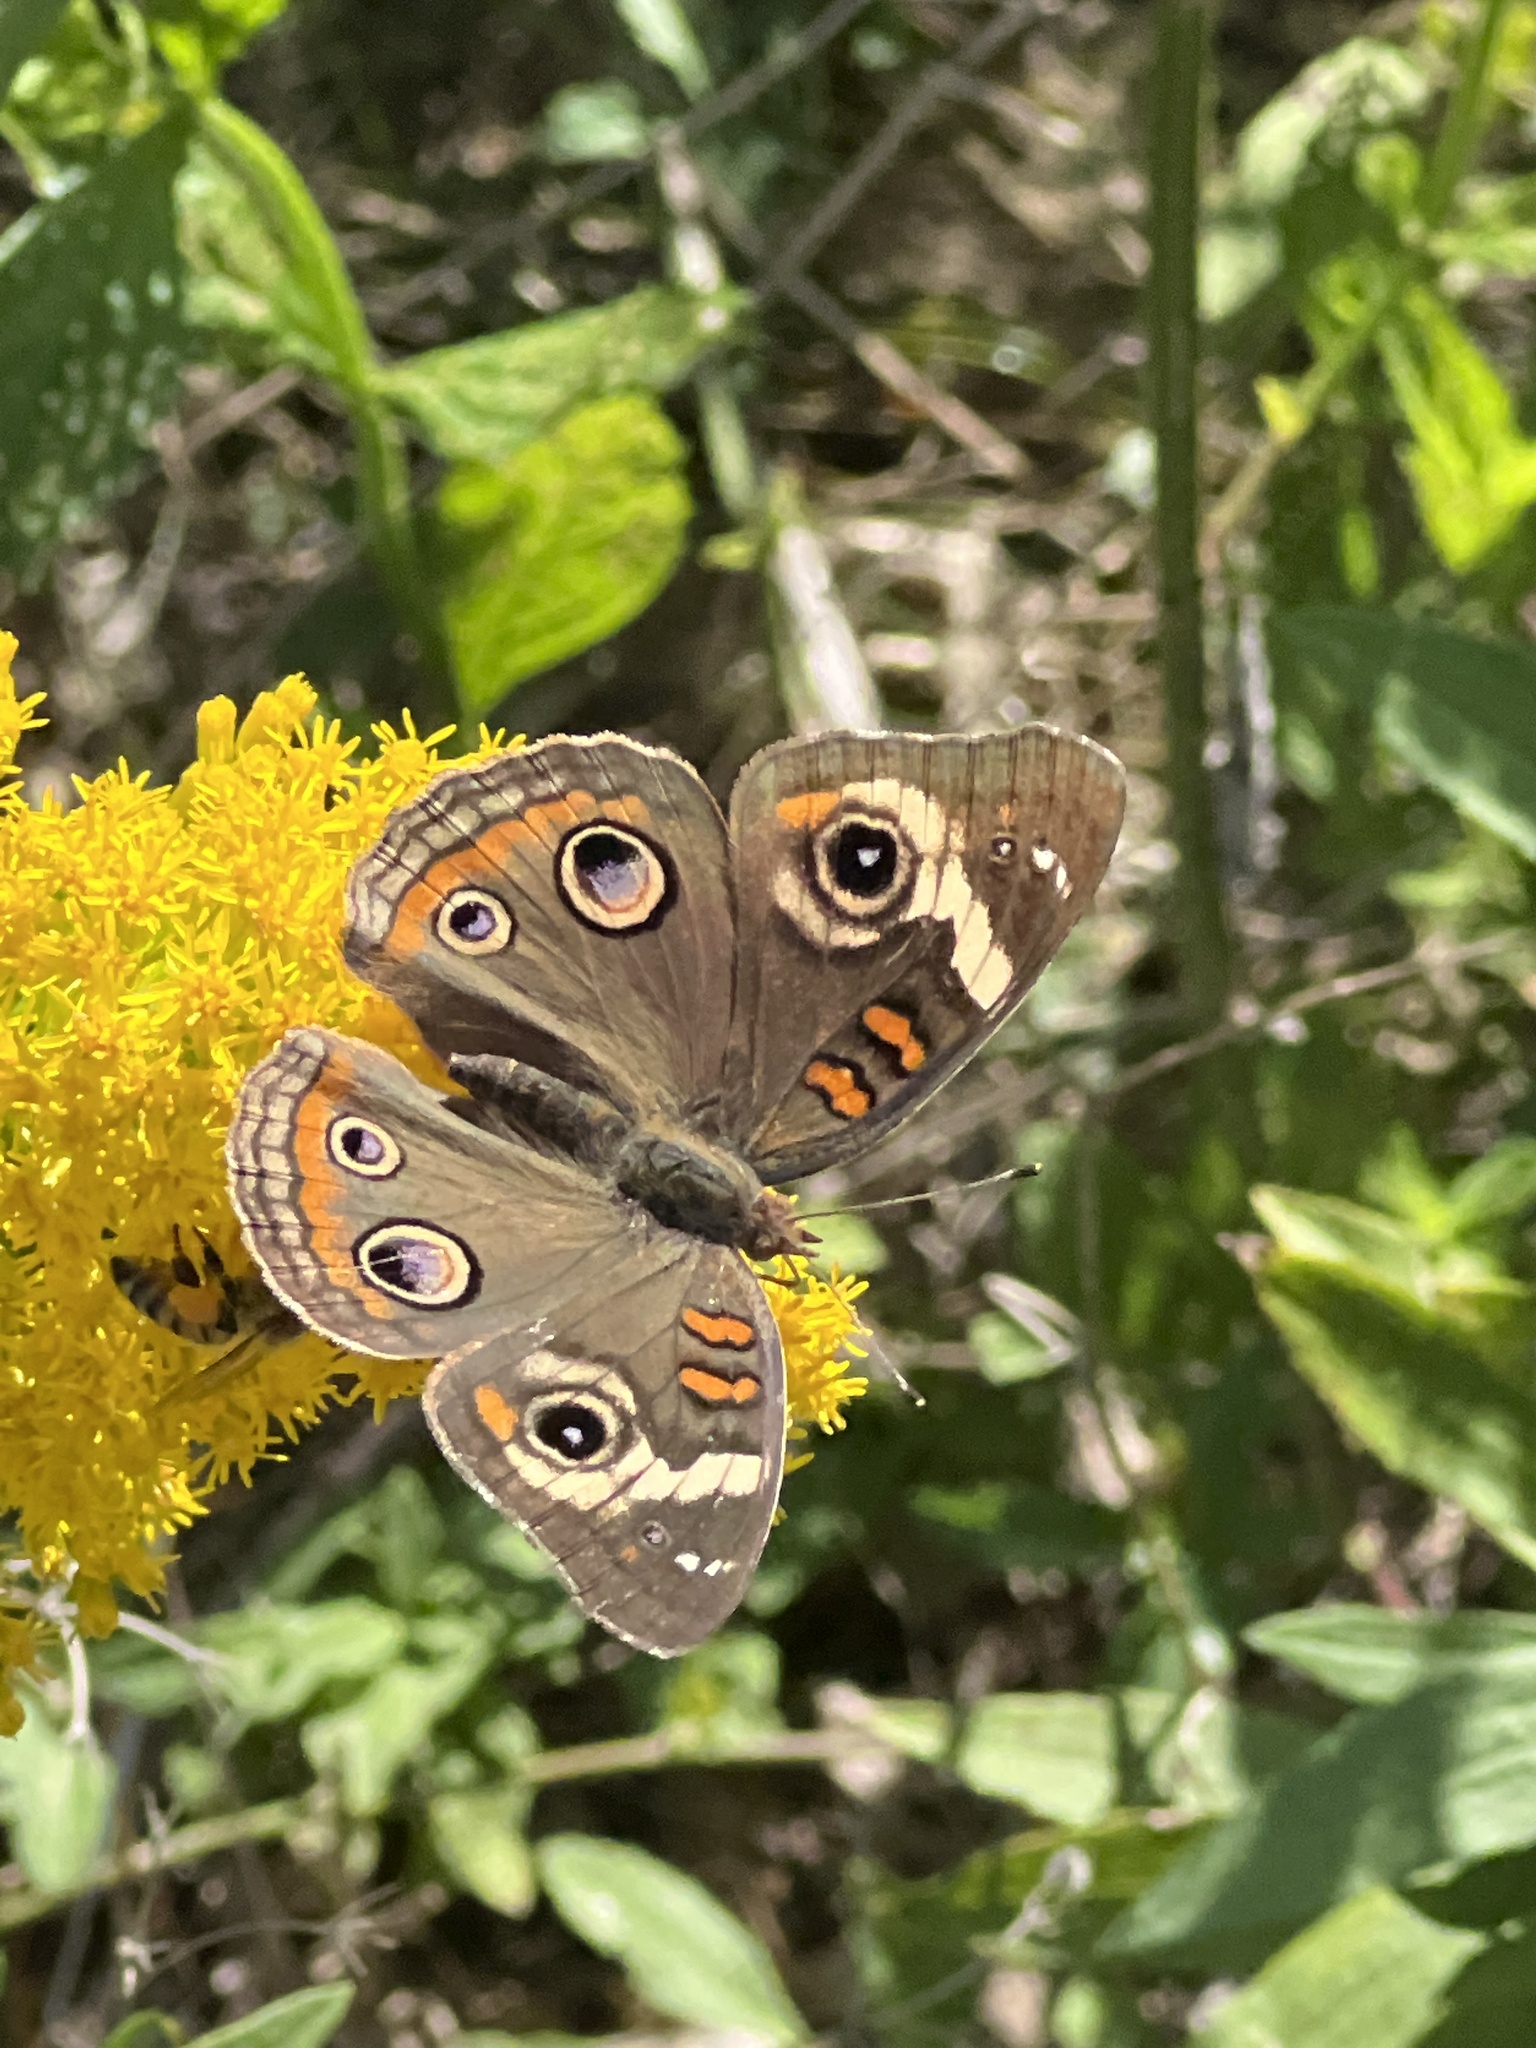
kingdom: Animalia
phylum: Arthropoda
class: Insecta
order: Lepidoptera
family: Nymphalidae
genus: Junonia
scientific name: Junonia coenia
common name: Common buckeye
